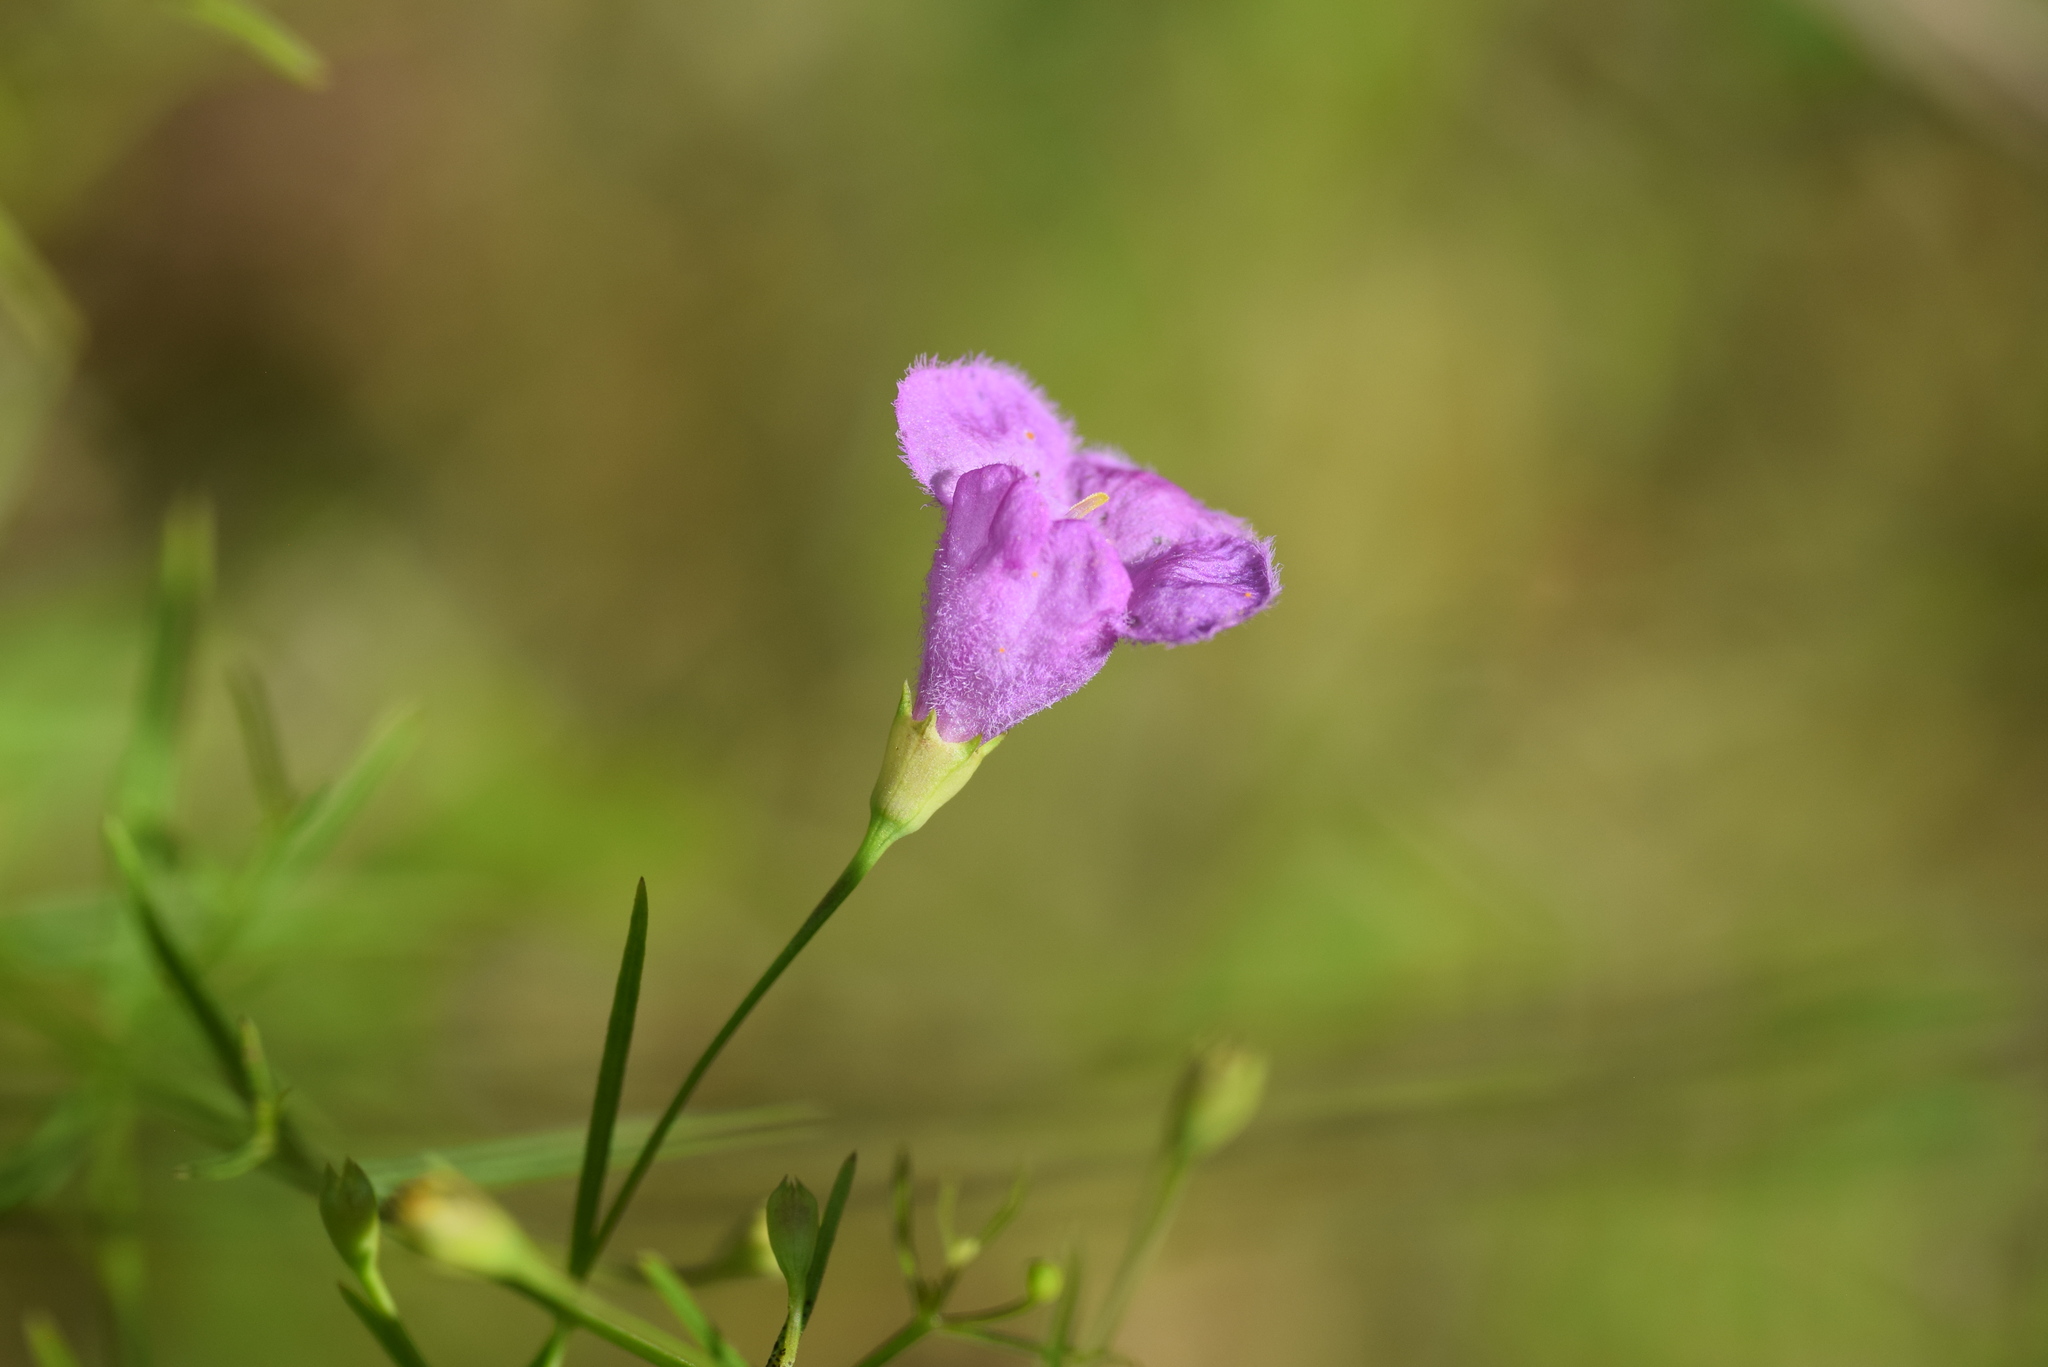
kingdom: Plantae
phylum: Tracheophyta
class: Magnoliopsida
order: Lamiales
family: Orobanchaceae
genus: Agalinis
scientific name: Agalinis homalantha
